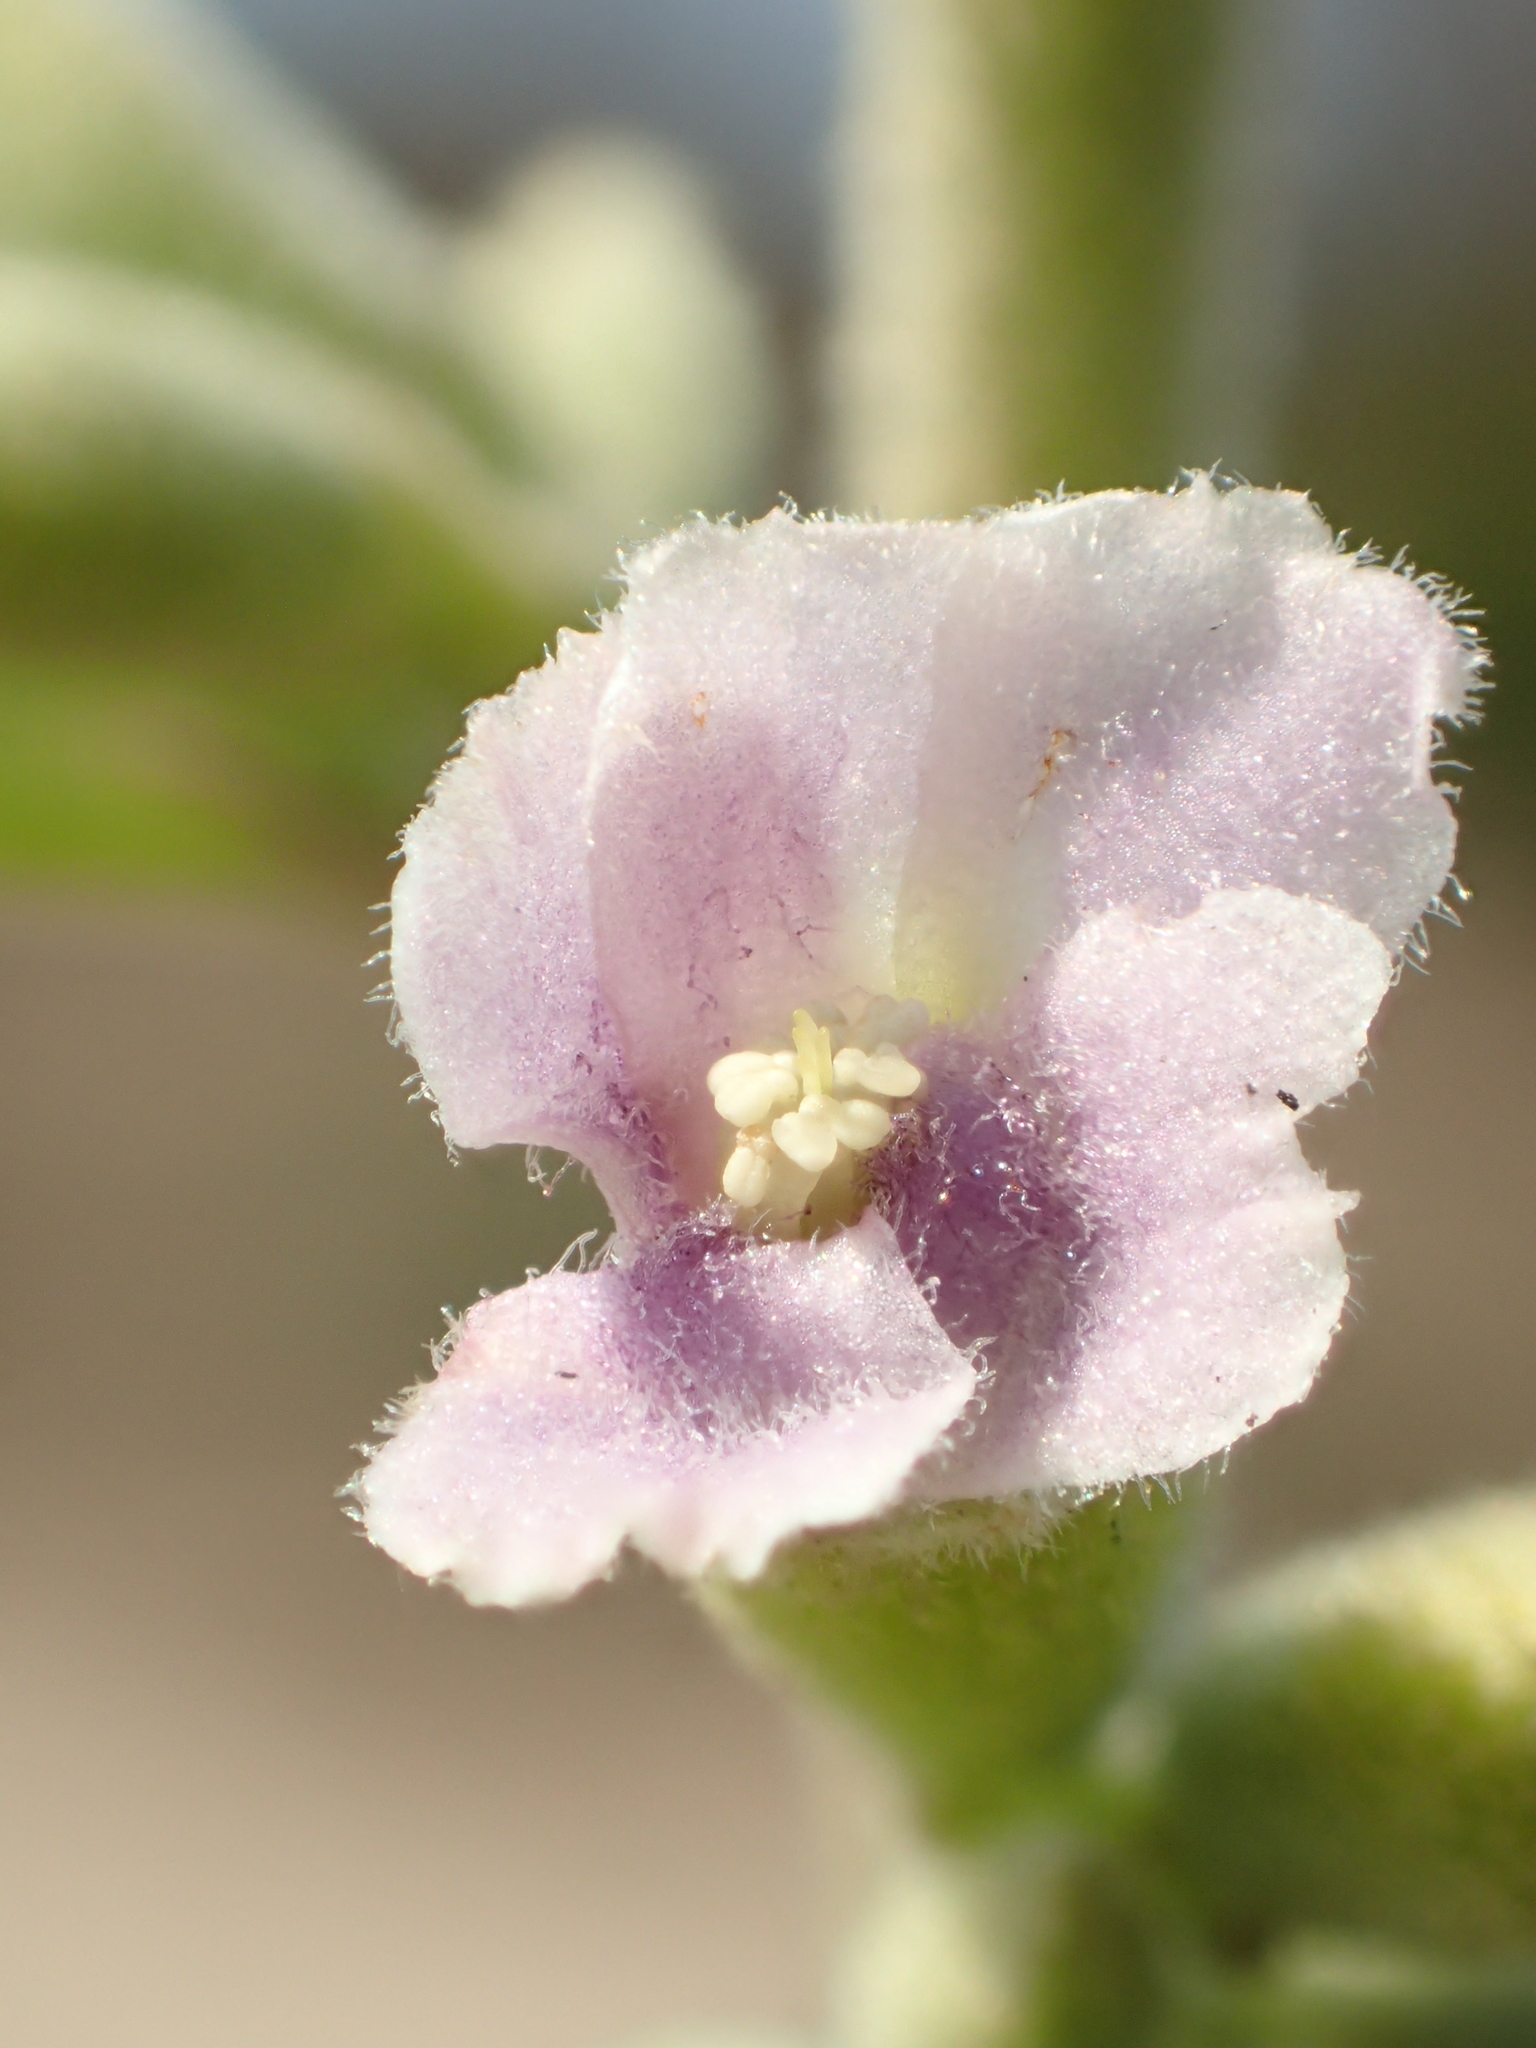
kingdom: Plantae
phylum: Tracheophyta
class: Magnoliopsida
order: Malvales
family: Malvaceae
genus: Helicteres
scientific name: Helicteres angustifolia
